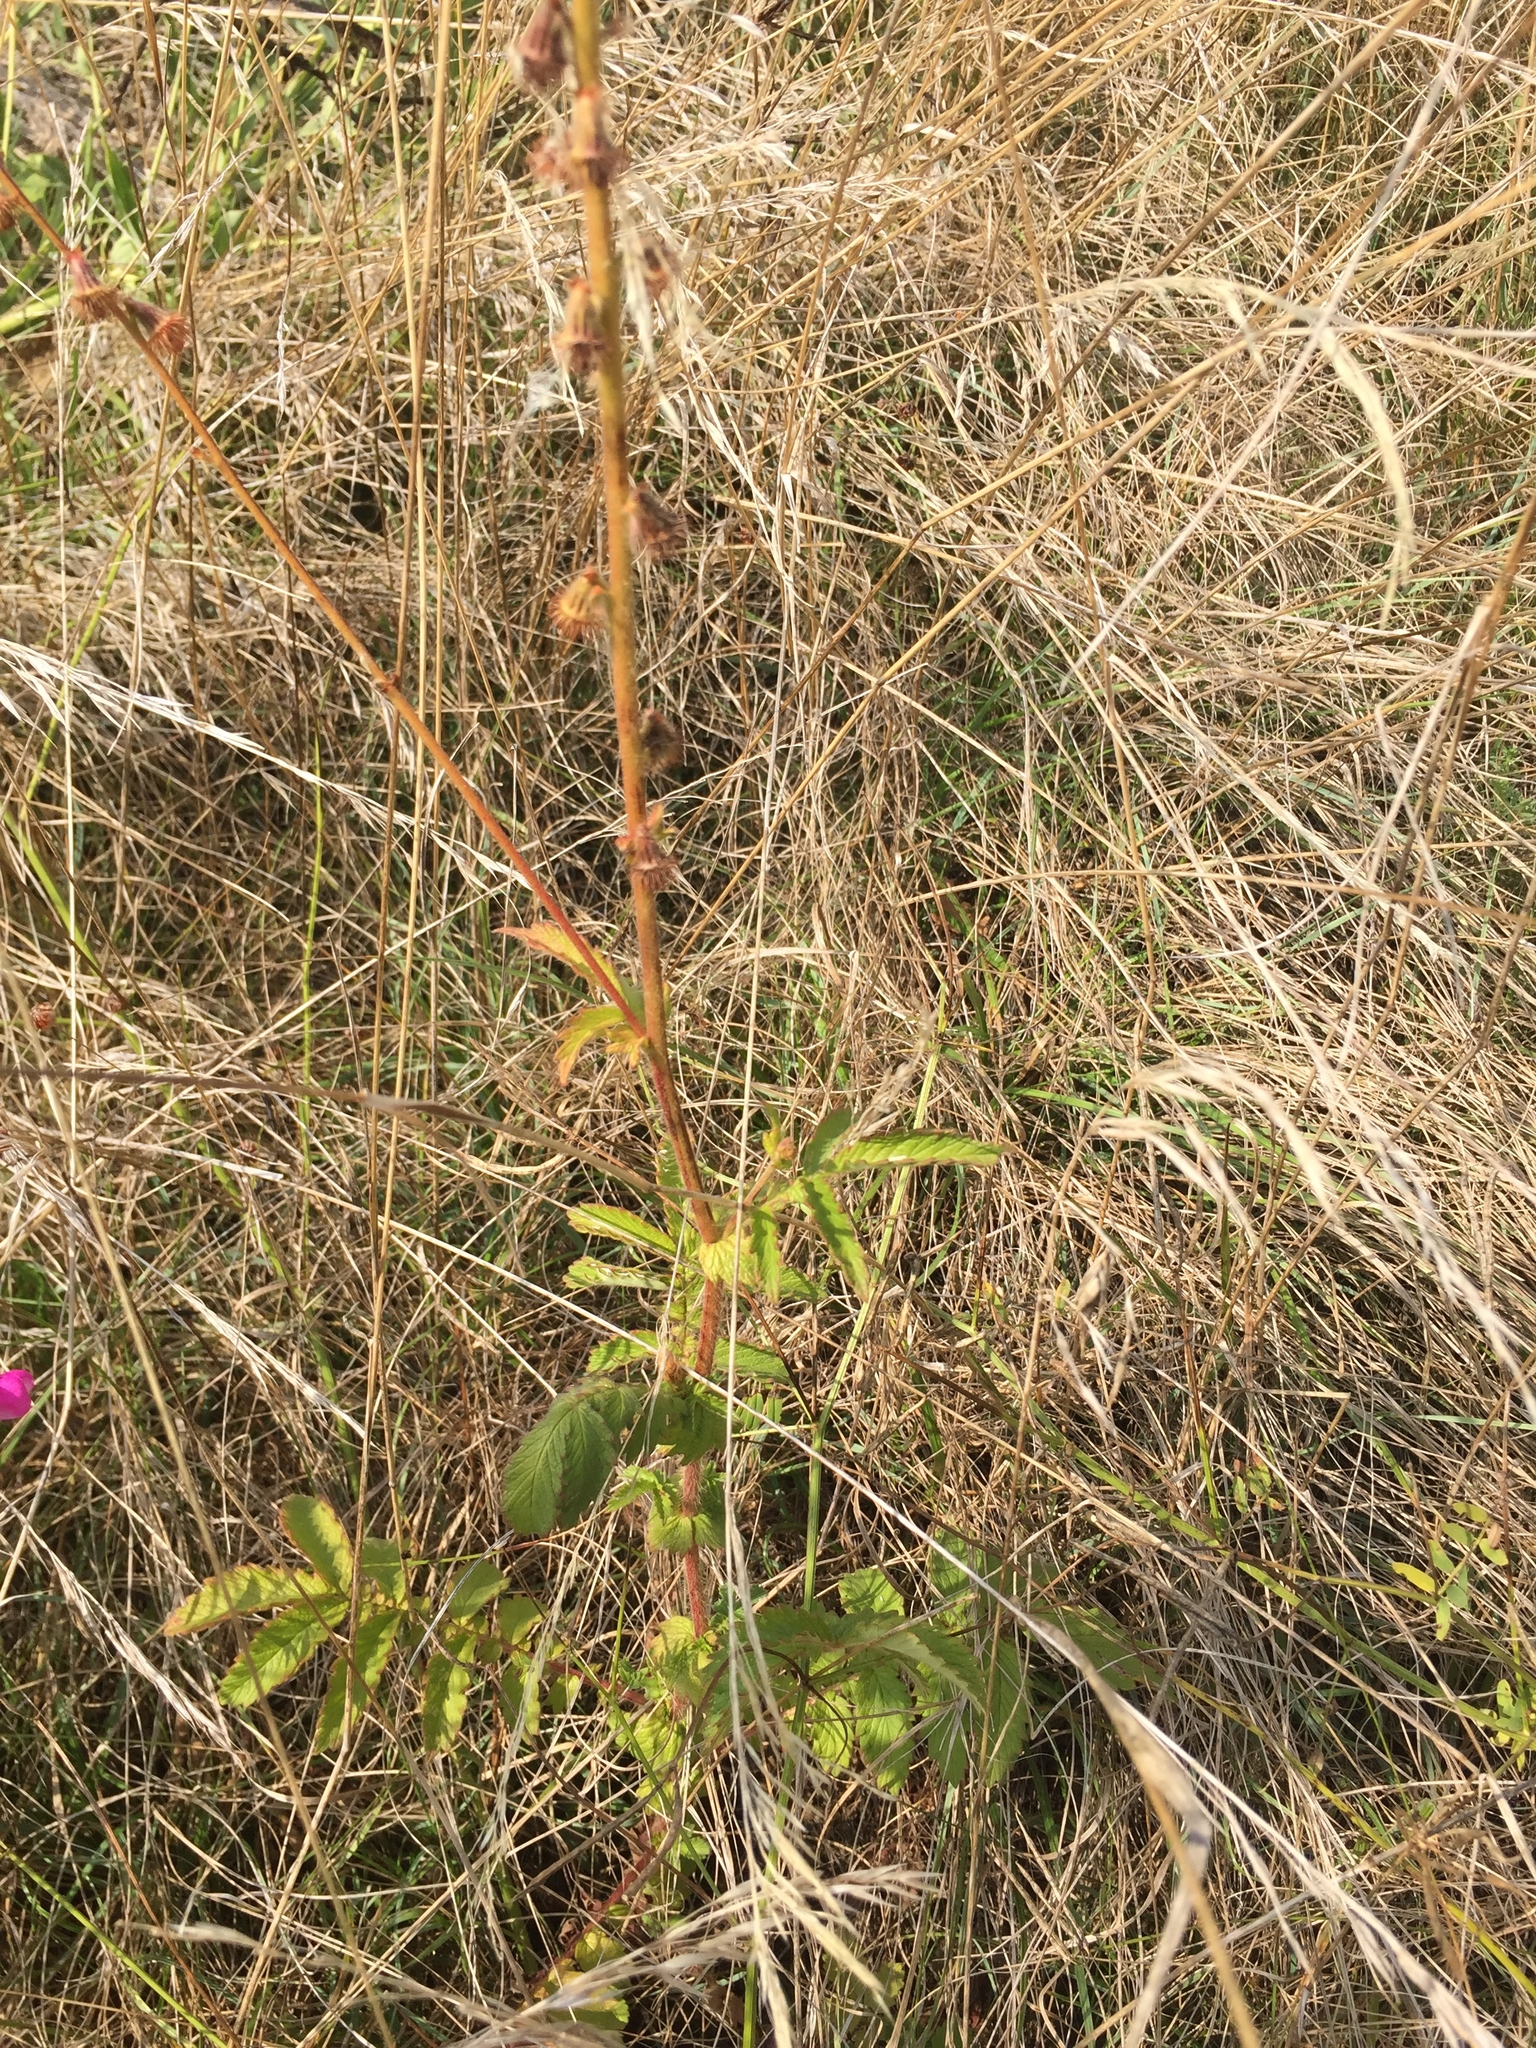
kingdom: Plantae
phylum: Tracheophyta
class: Magnoliopsida
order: Rosales
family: Rosaceae
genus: Agrimonia
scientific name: Agrimonia eupatoria
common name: Agrimony
